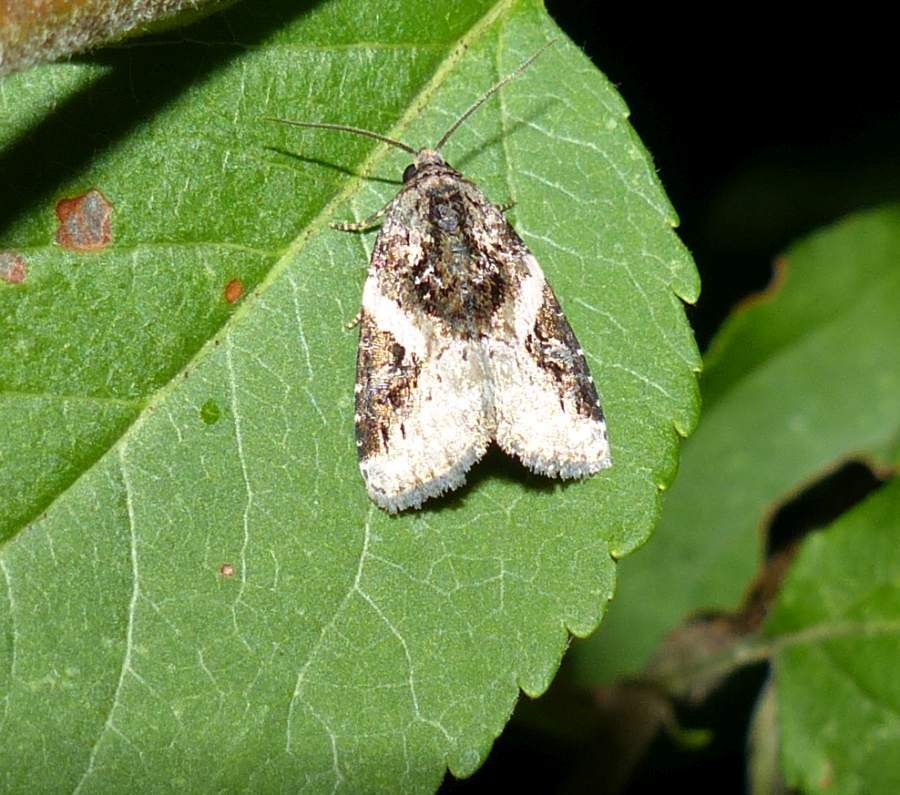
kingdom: Animalia
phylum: Arthropoda
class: Insecta
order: Lepidoptera
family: Noctuidae
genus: Pseudeustrotia
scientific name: Pseudeustrotia carneola
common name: Pink-barred lithacodia moth
